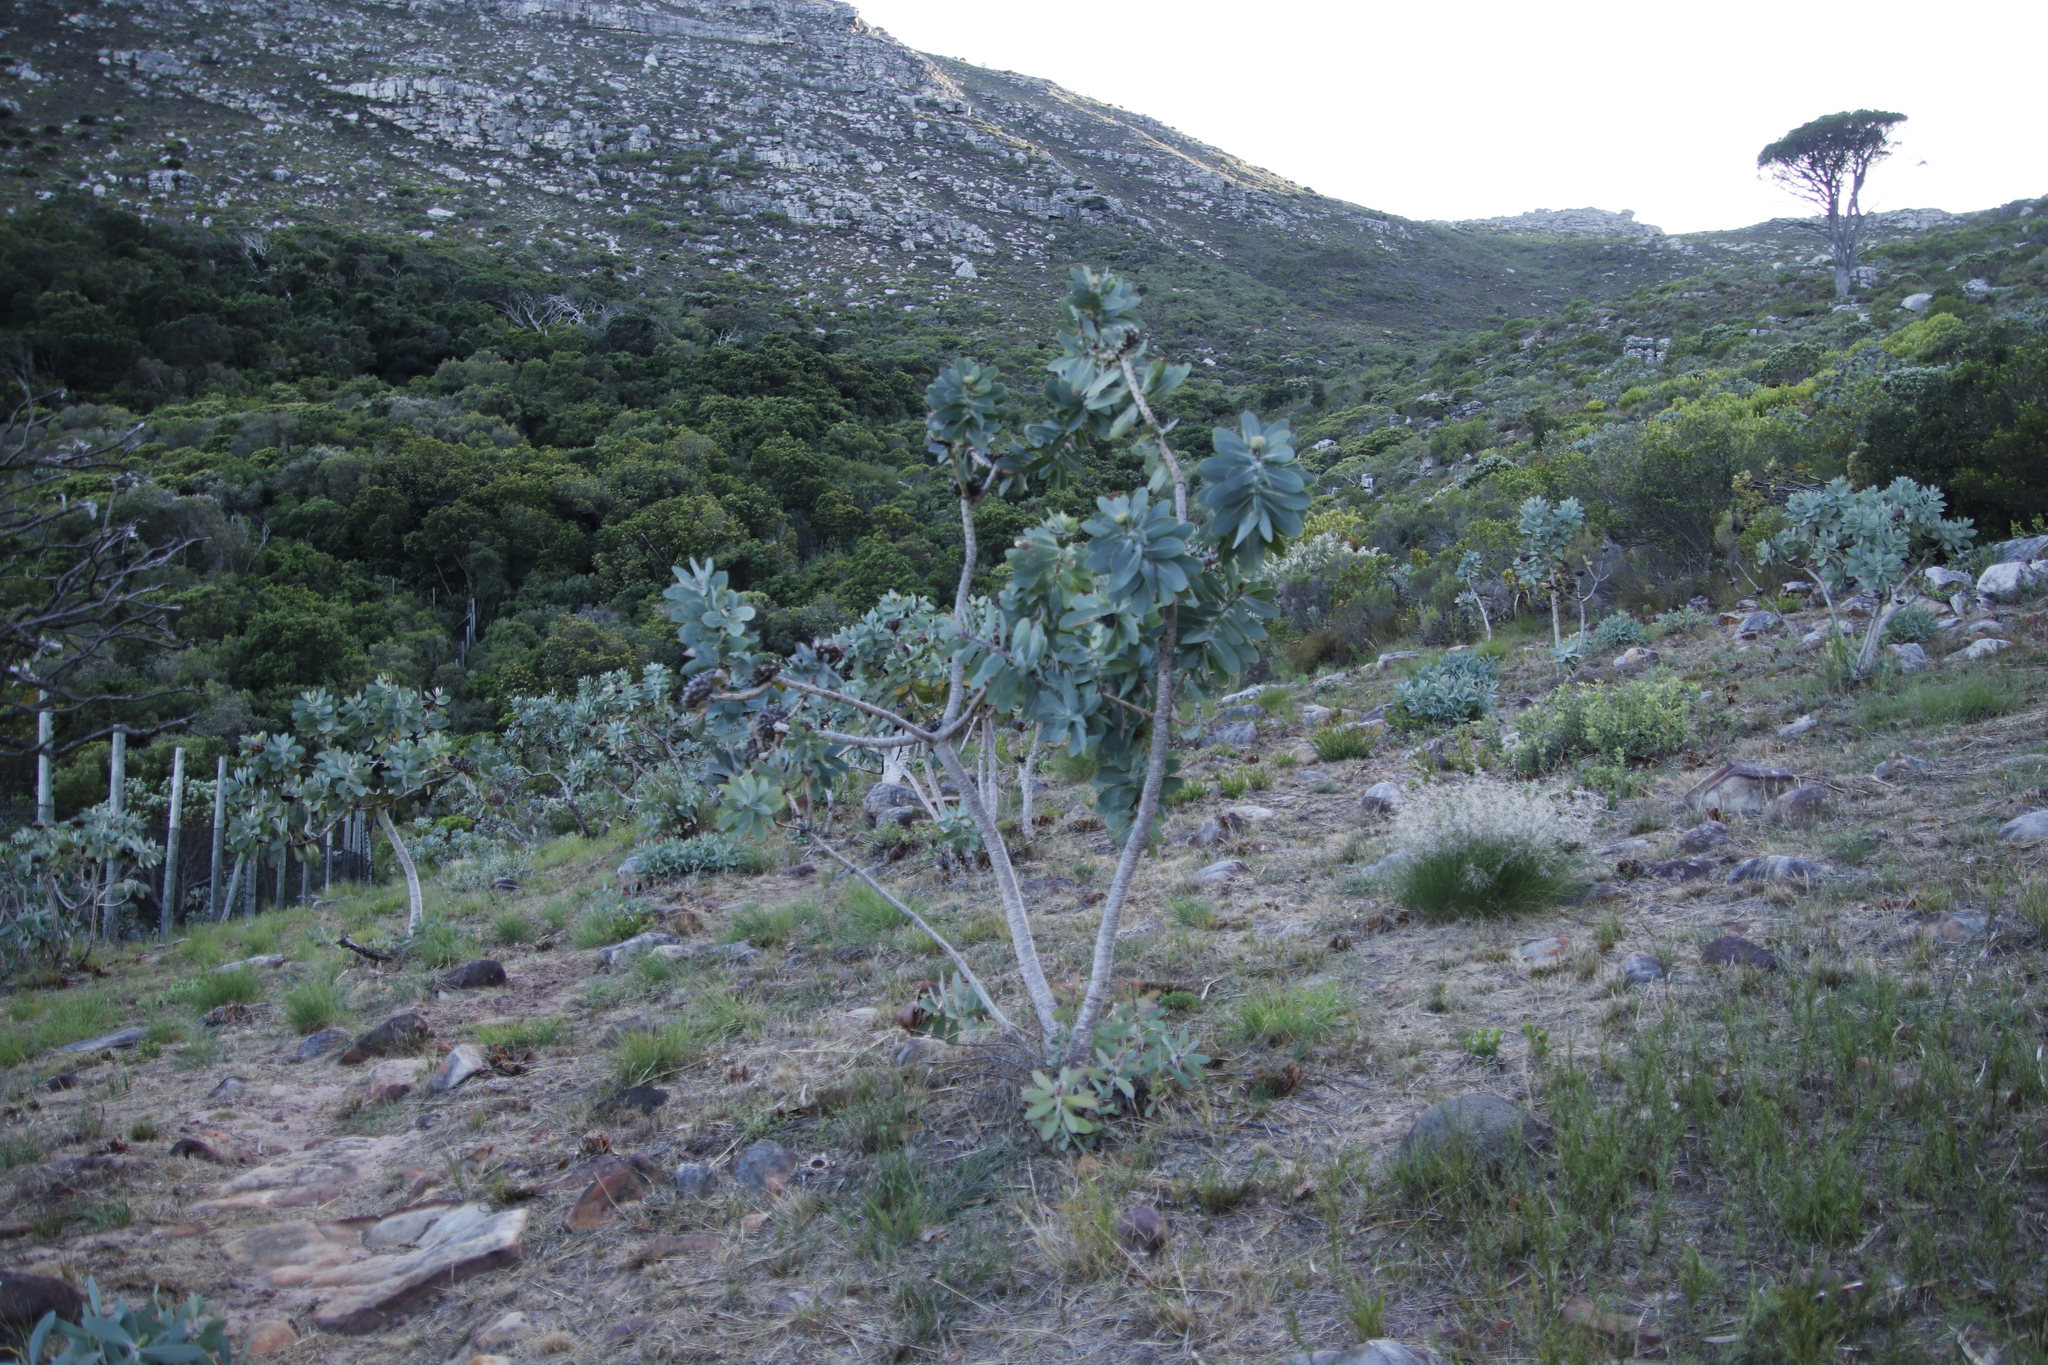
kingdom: Plantae
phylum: Tracheophyta
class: Magnoliopsida
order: Proteales
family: Proteaceae
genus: Protea
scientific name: Protea nitida
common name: Tree protea
